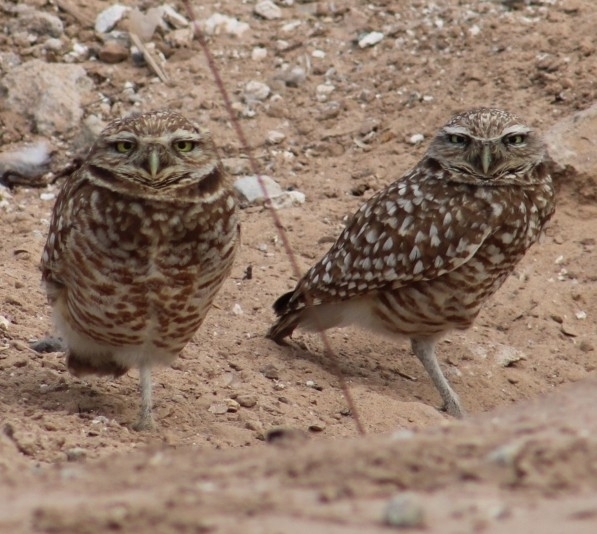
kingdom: Animalia
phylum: Chordata
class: Aves
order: Strigiformes
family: Strigidae
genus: Athene
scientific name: Athene cunicularia
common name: Burrowing owl
